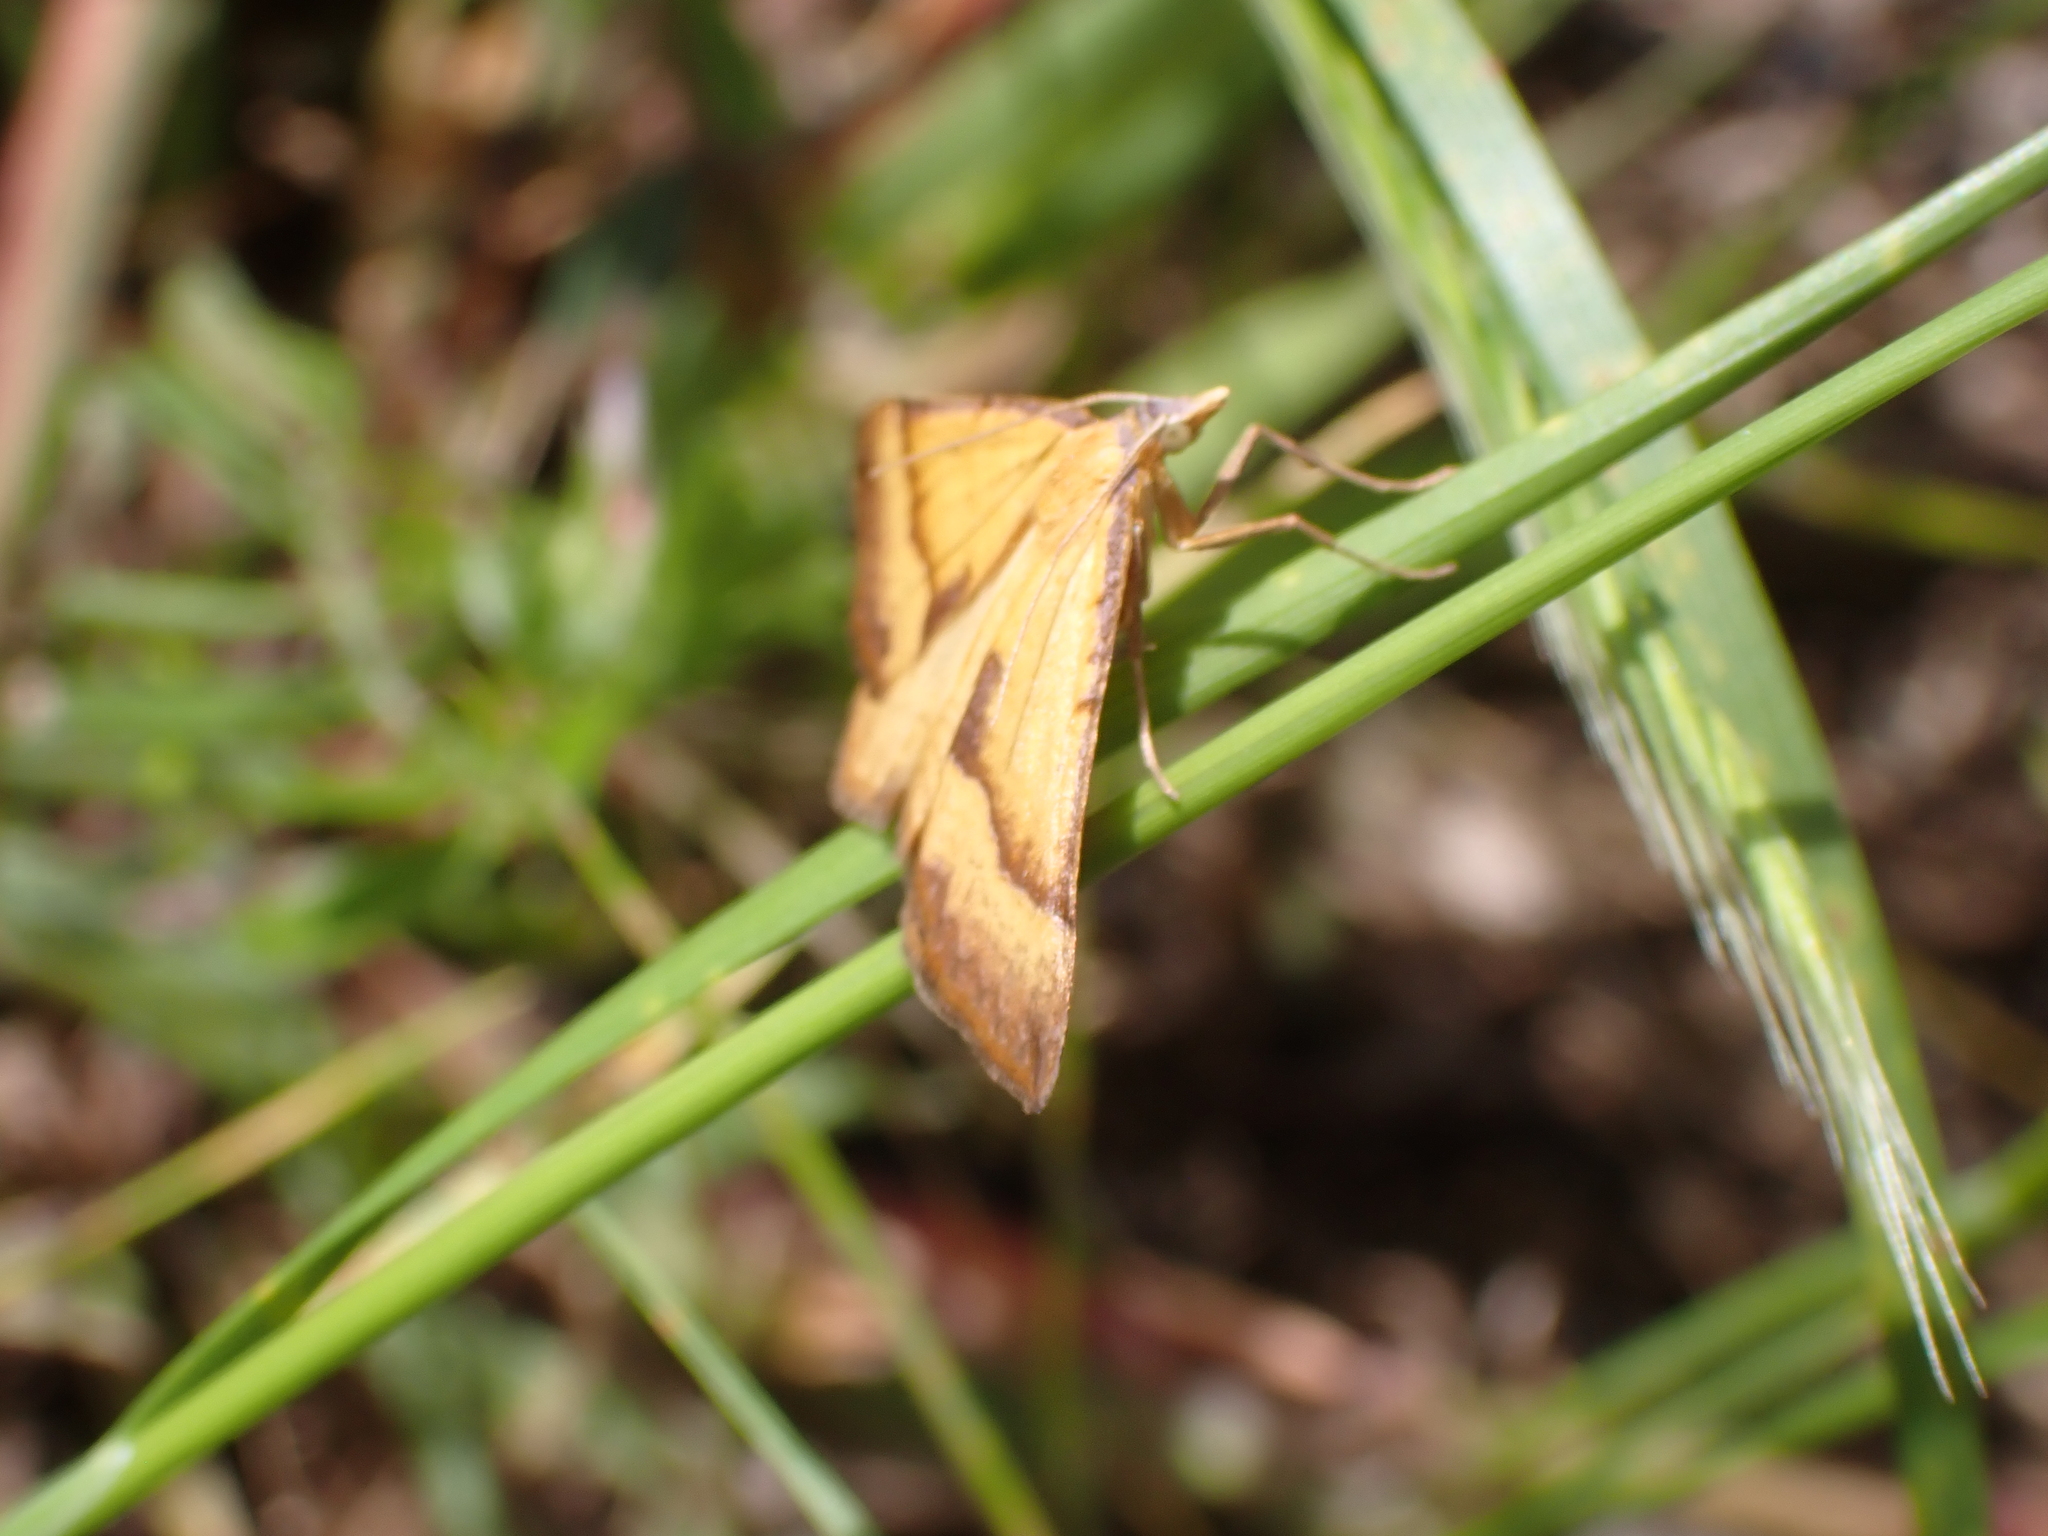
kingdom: Animalia
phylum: Arthropoda
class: Insecta
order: Lepidoptera
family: Geometridae
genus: Anachloris
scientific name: Anachloris subochraria
